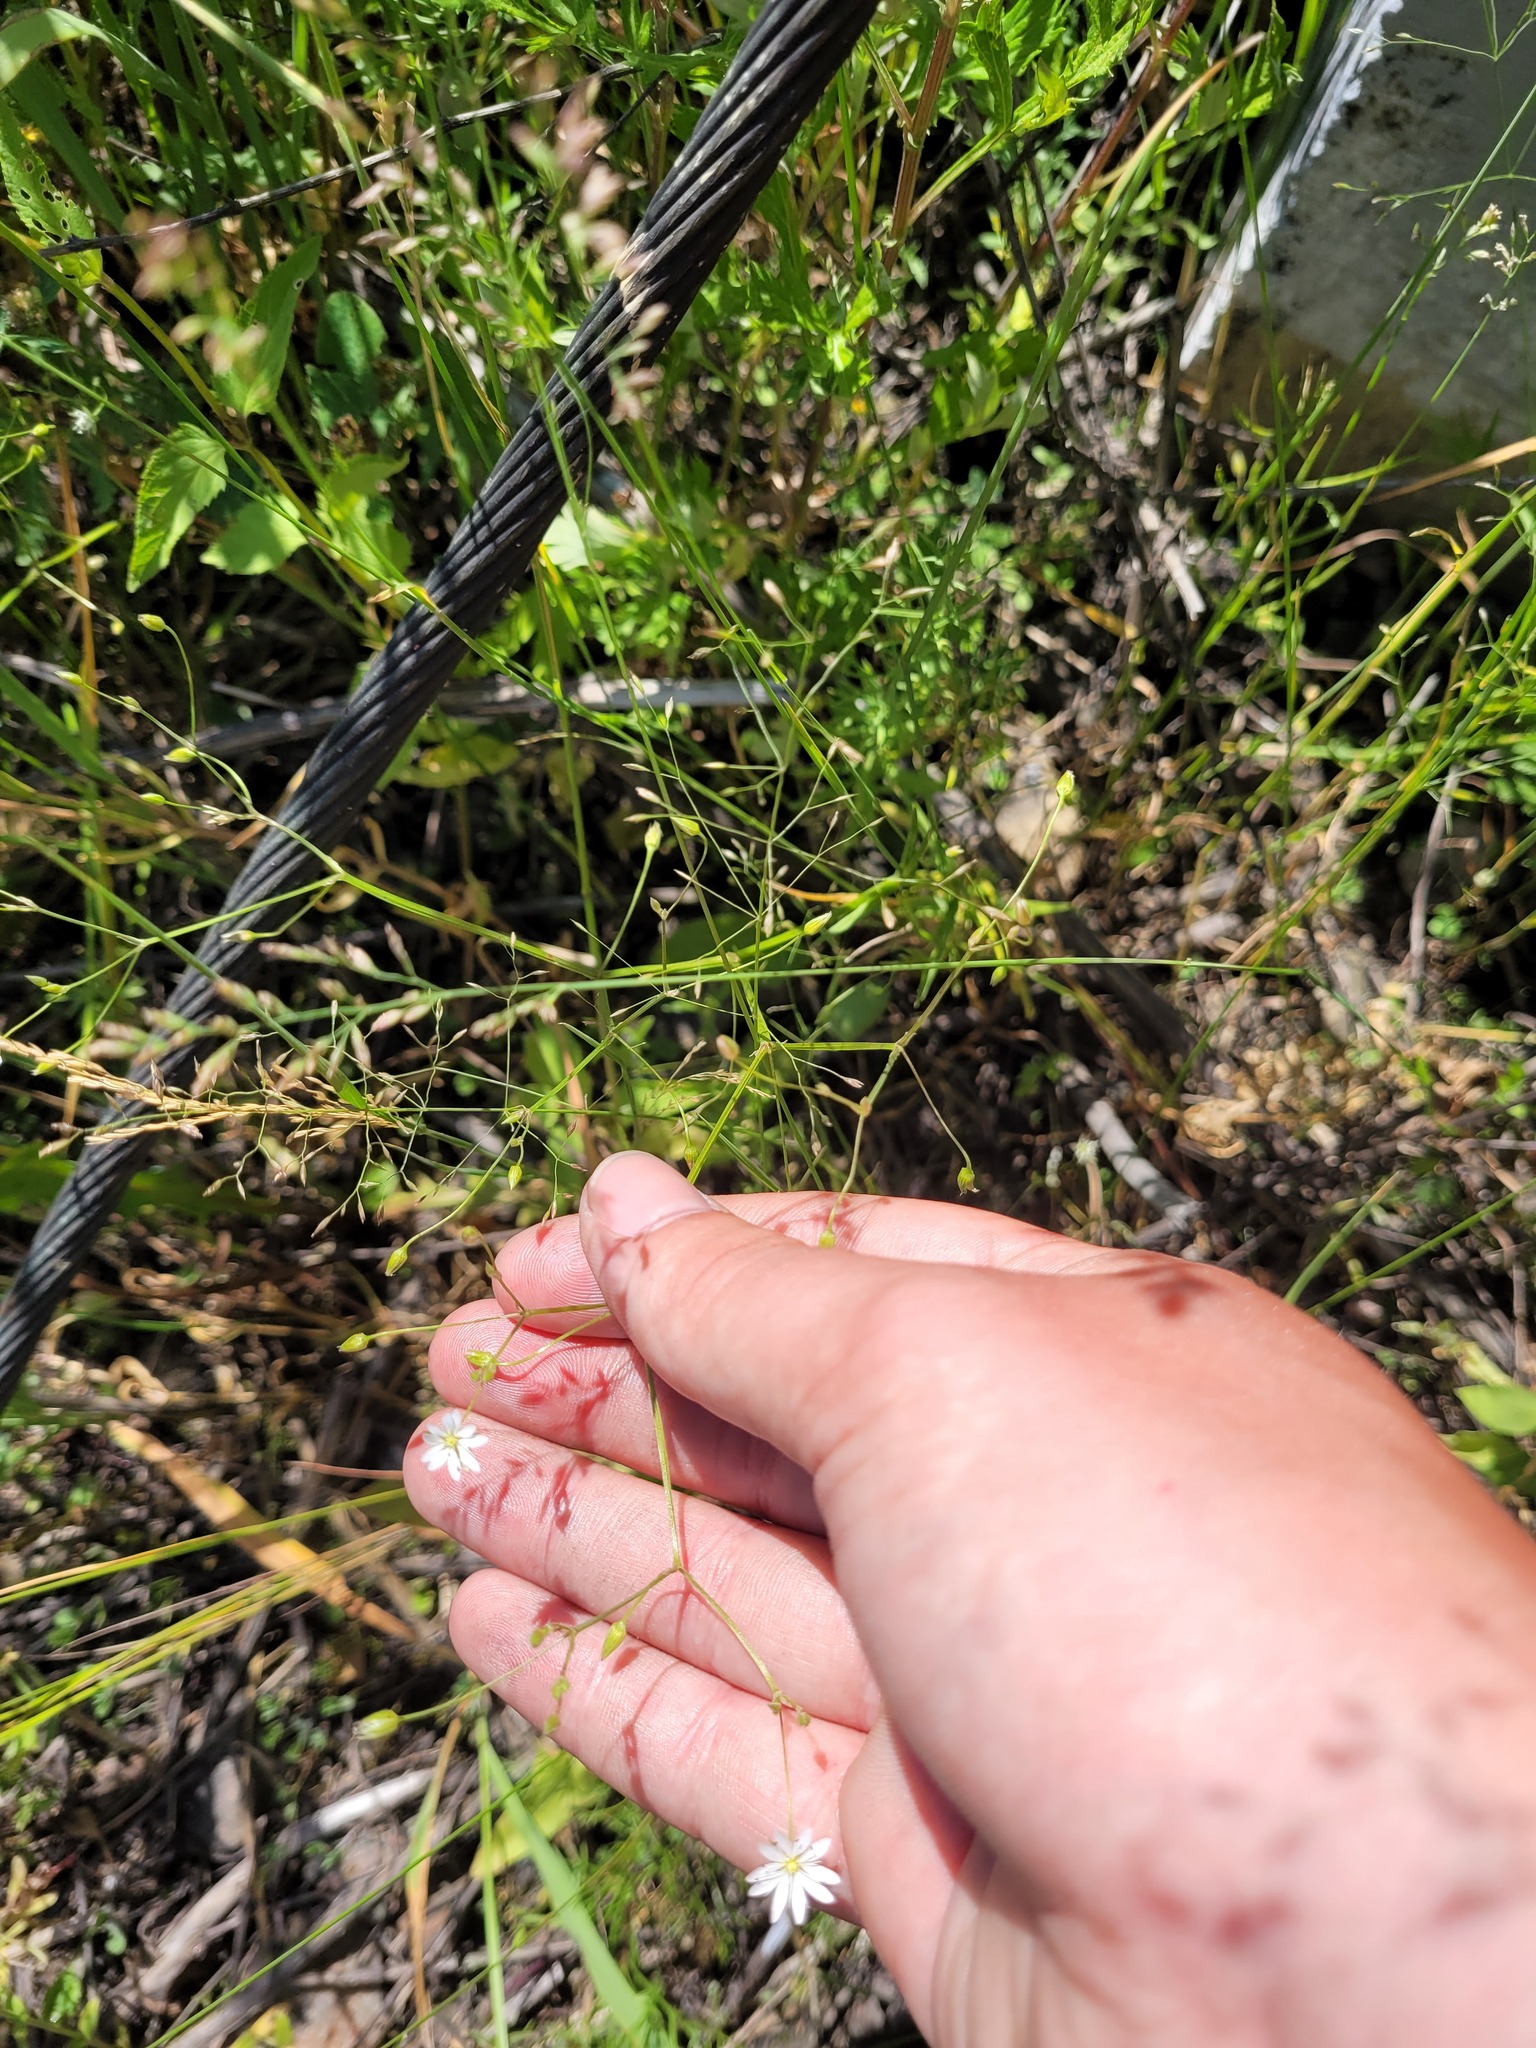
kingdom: Plantae
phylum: Tracheophyta
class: Magnoliopsida
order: Caryophyllales
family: Caryophyllaceae
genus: Stellaria
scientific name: Stellaria graminea
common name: Grass-like starwort
